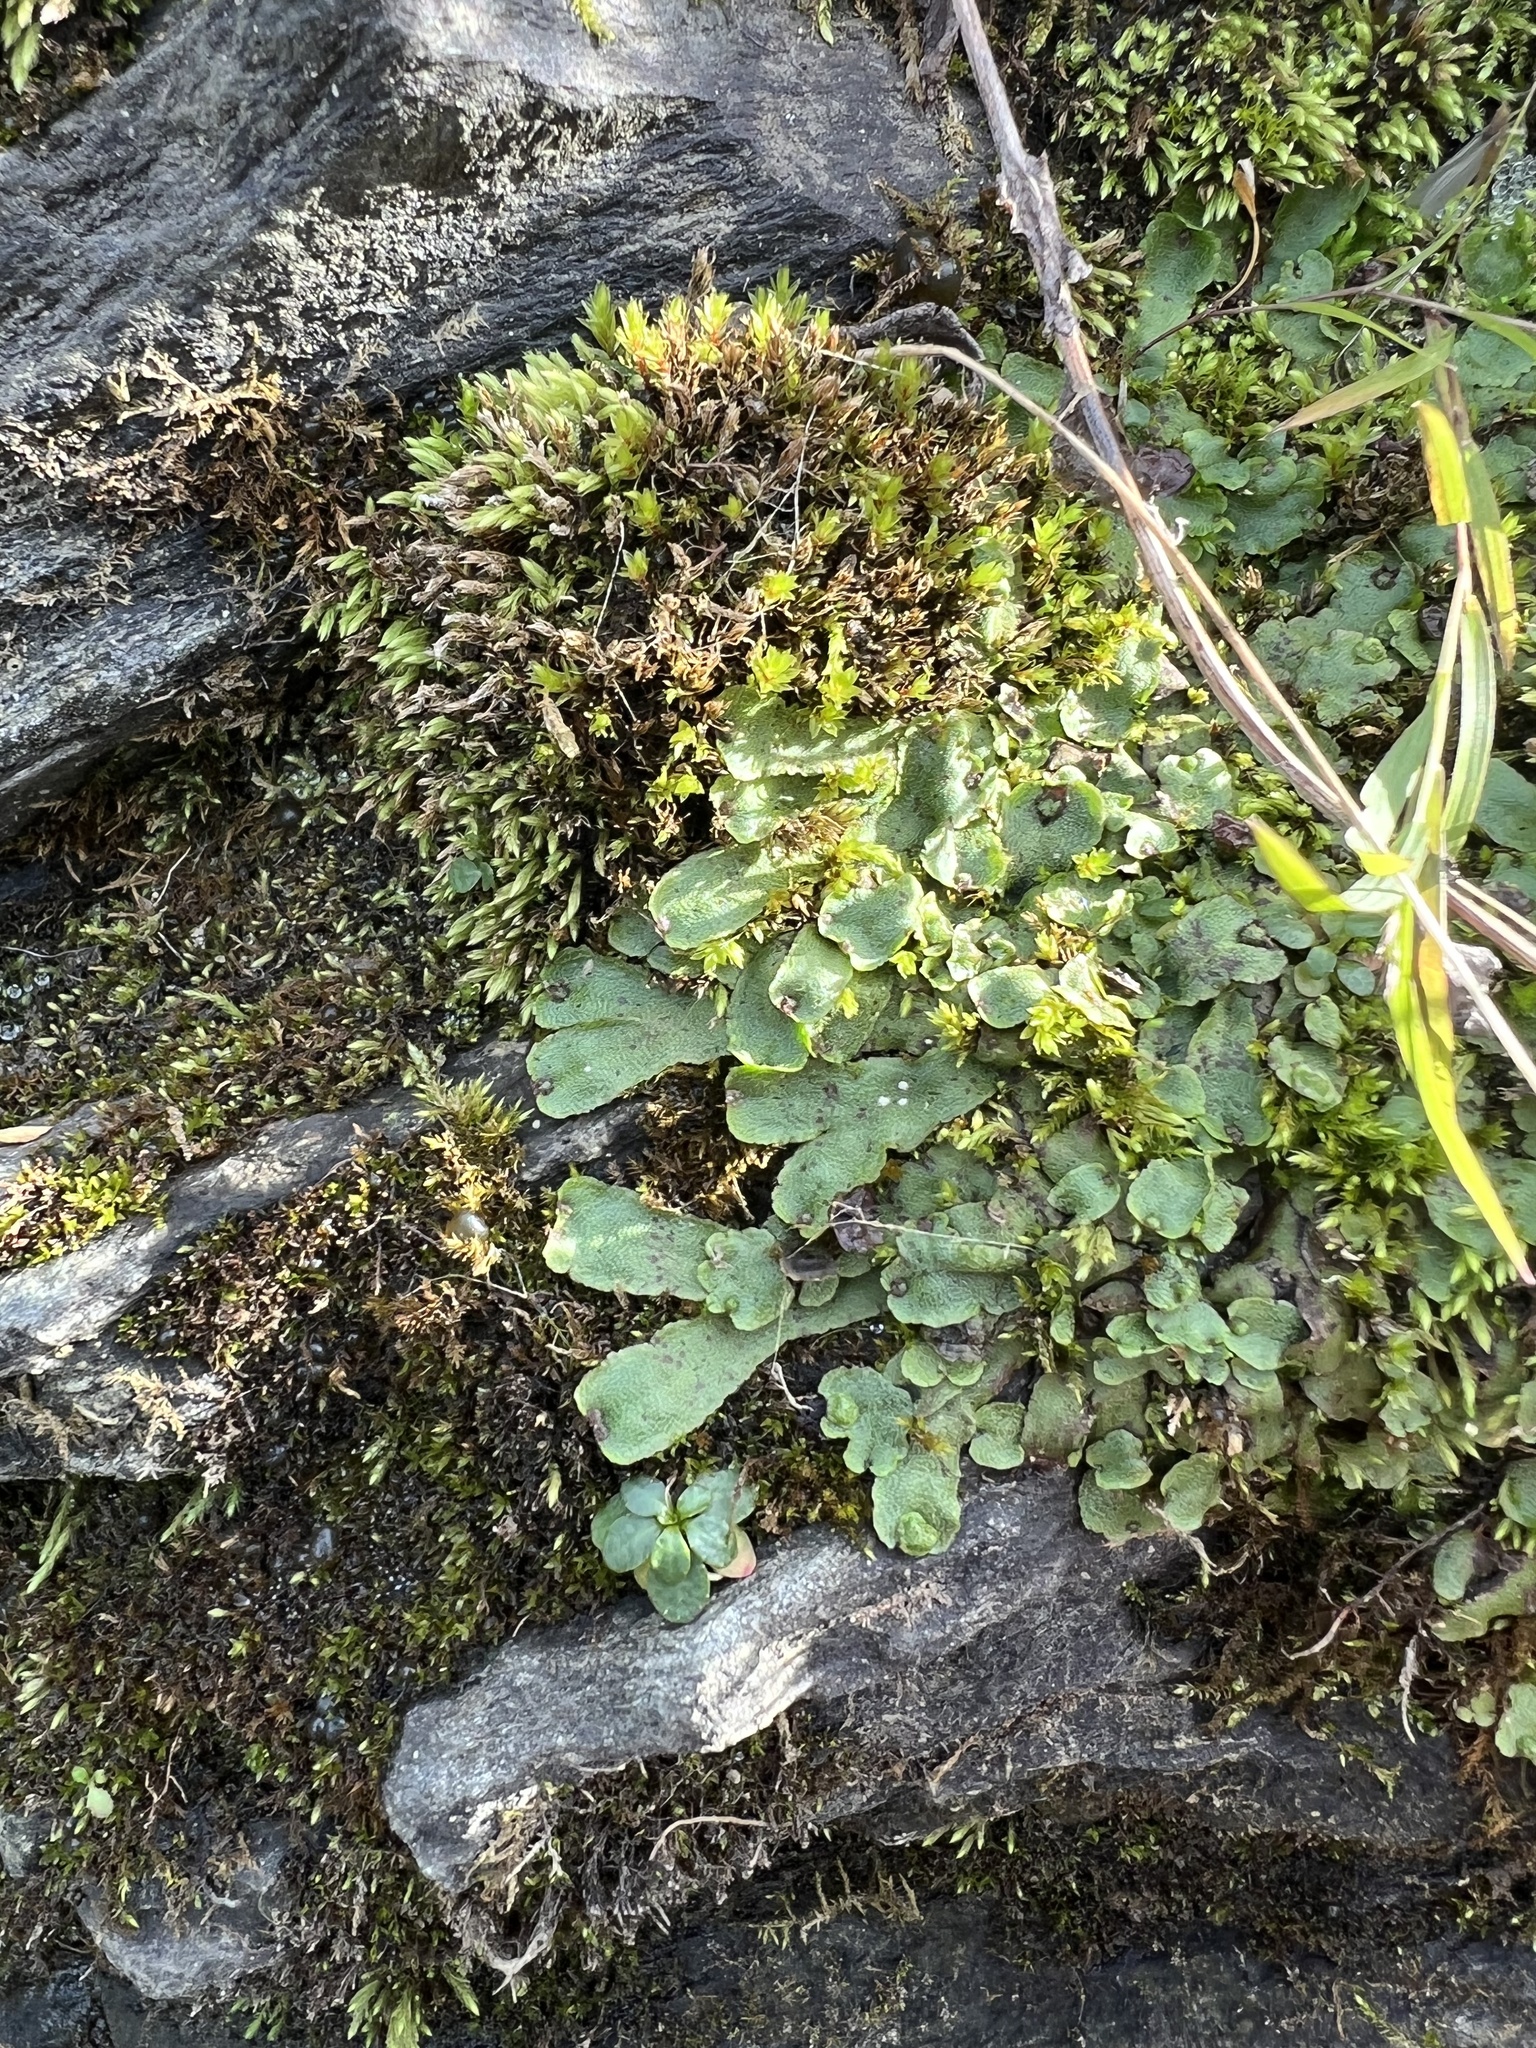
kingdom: Plantae
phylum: Marchantiophyta
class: Marchantiopsida
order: Marchantiales
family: Conocephalaceae
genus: Conocephalum
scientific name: Conocephalum salebrosum
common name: Cat-tongue liverwort
